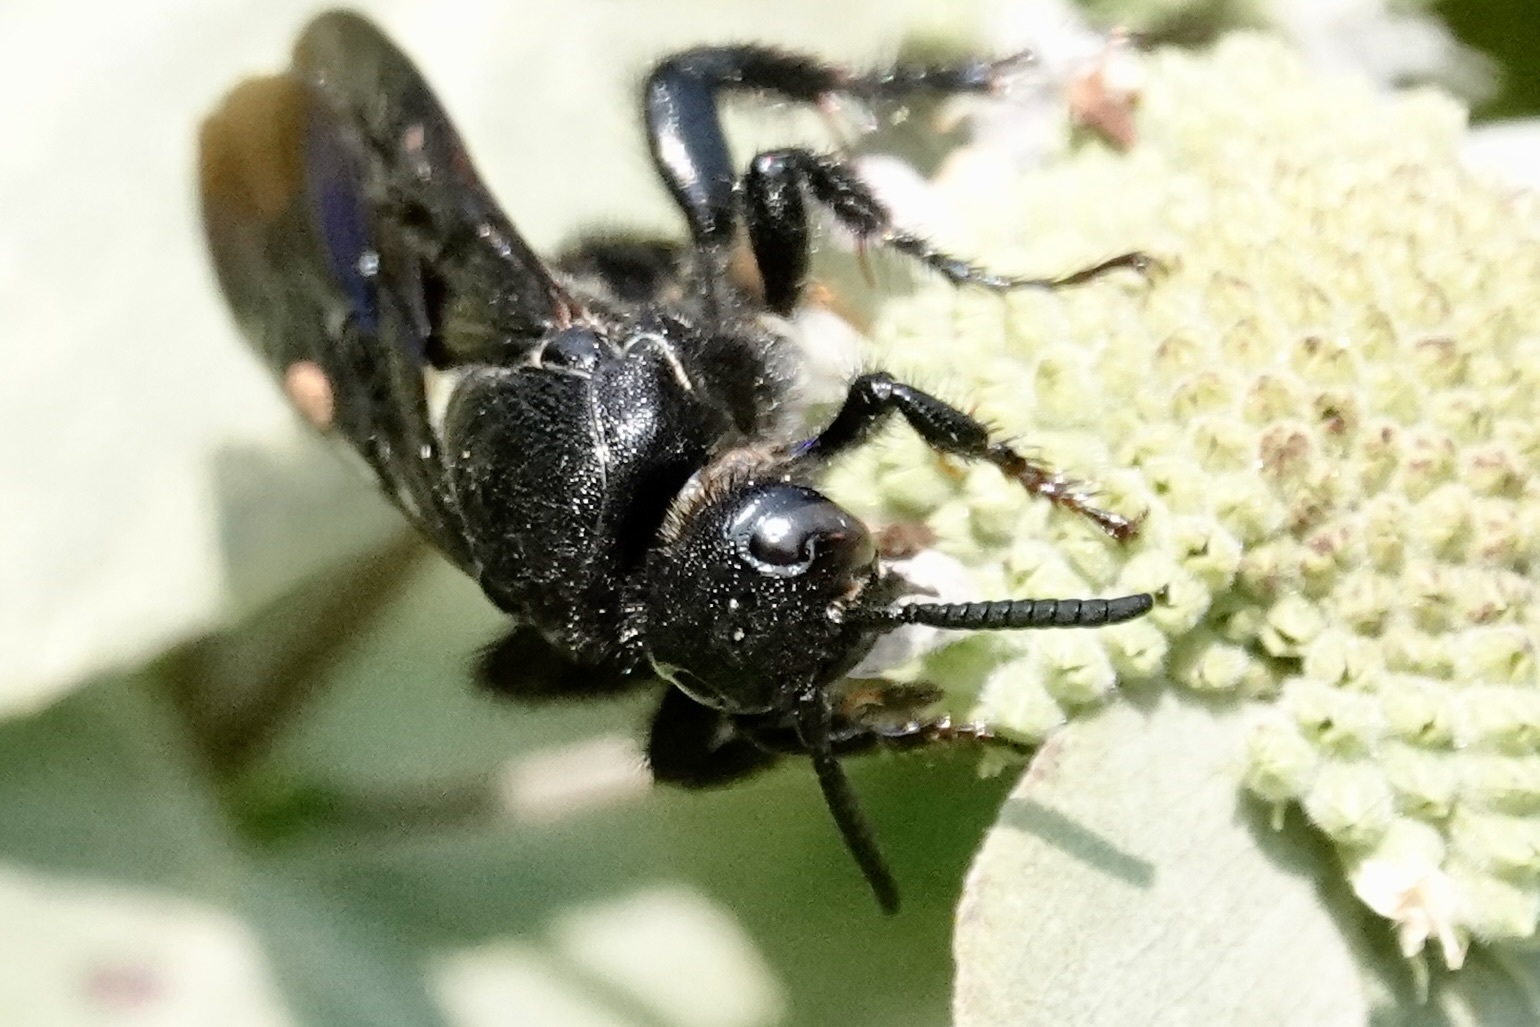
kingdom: Animalia
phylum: Arthropoda
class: Insecta
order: Hymenoptera
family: Scoliidae
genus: Scolia
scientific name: Scolia dubia
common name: Blue-winged scoliid wasp
